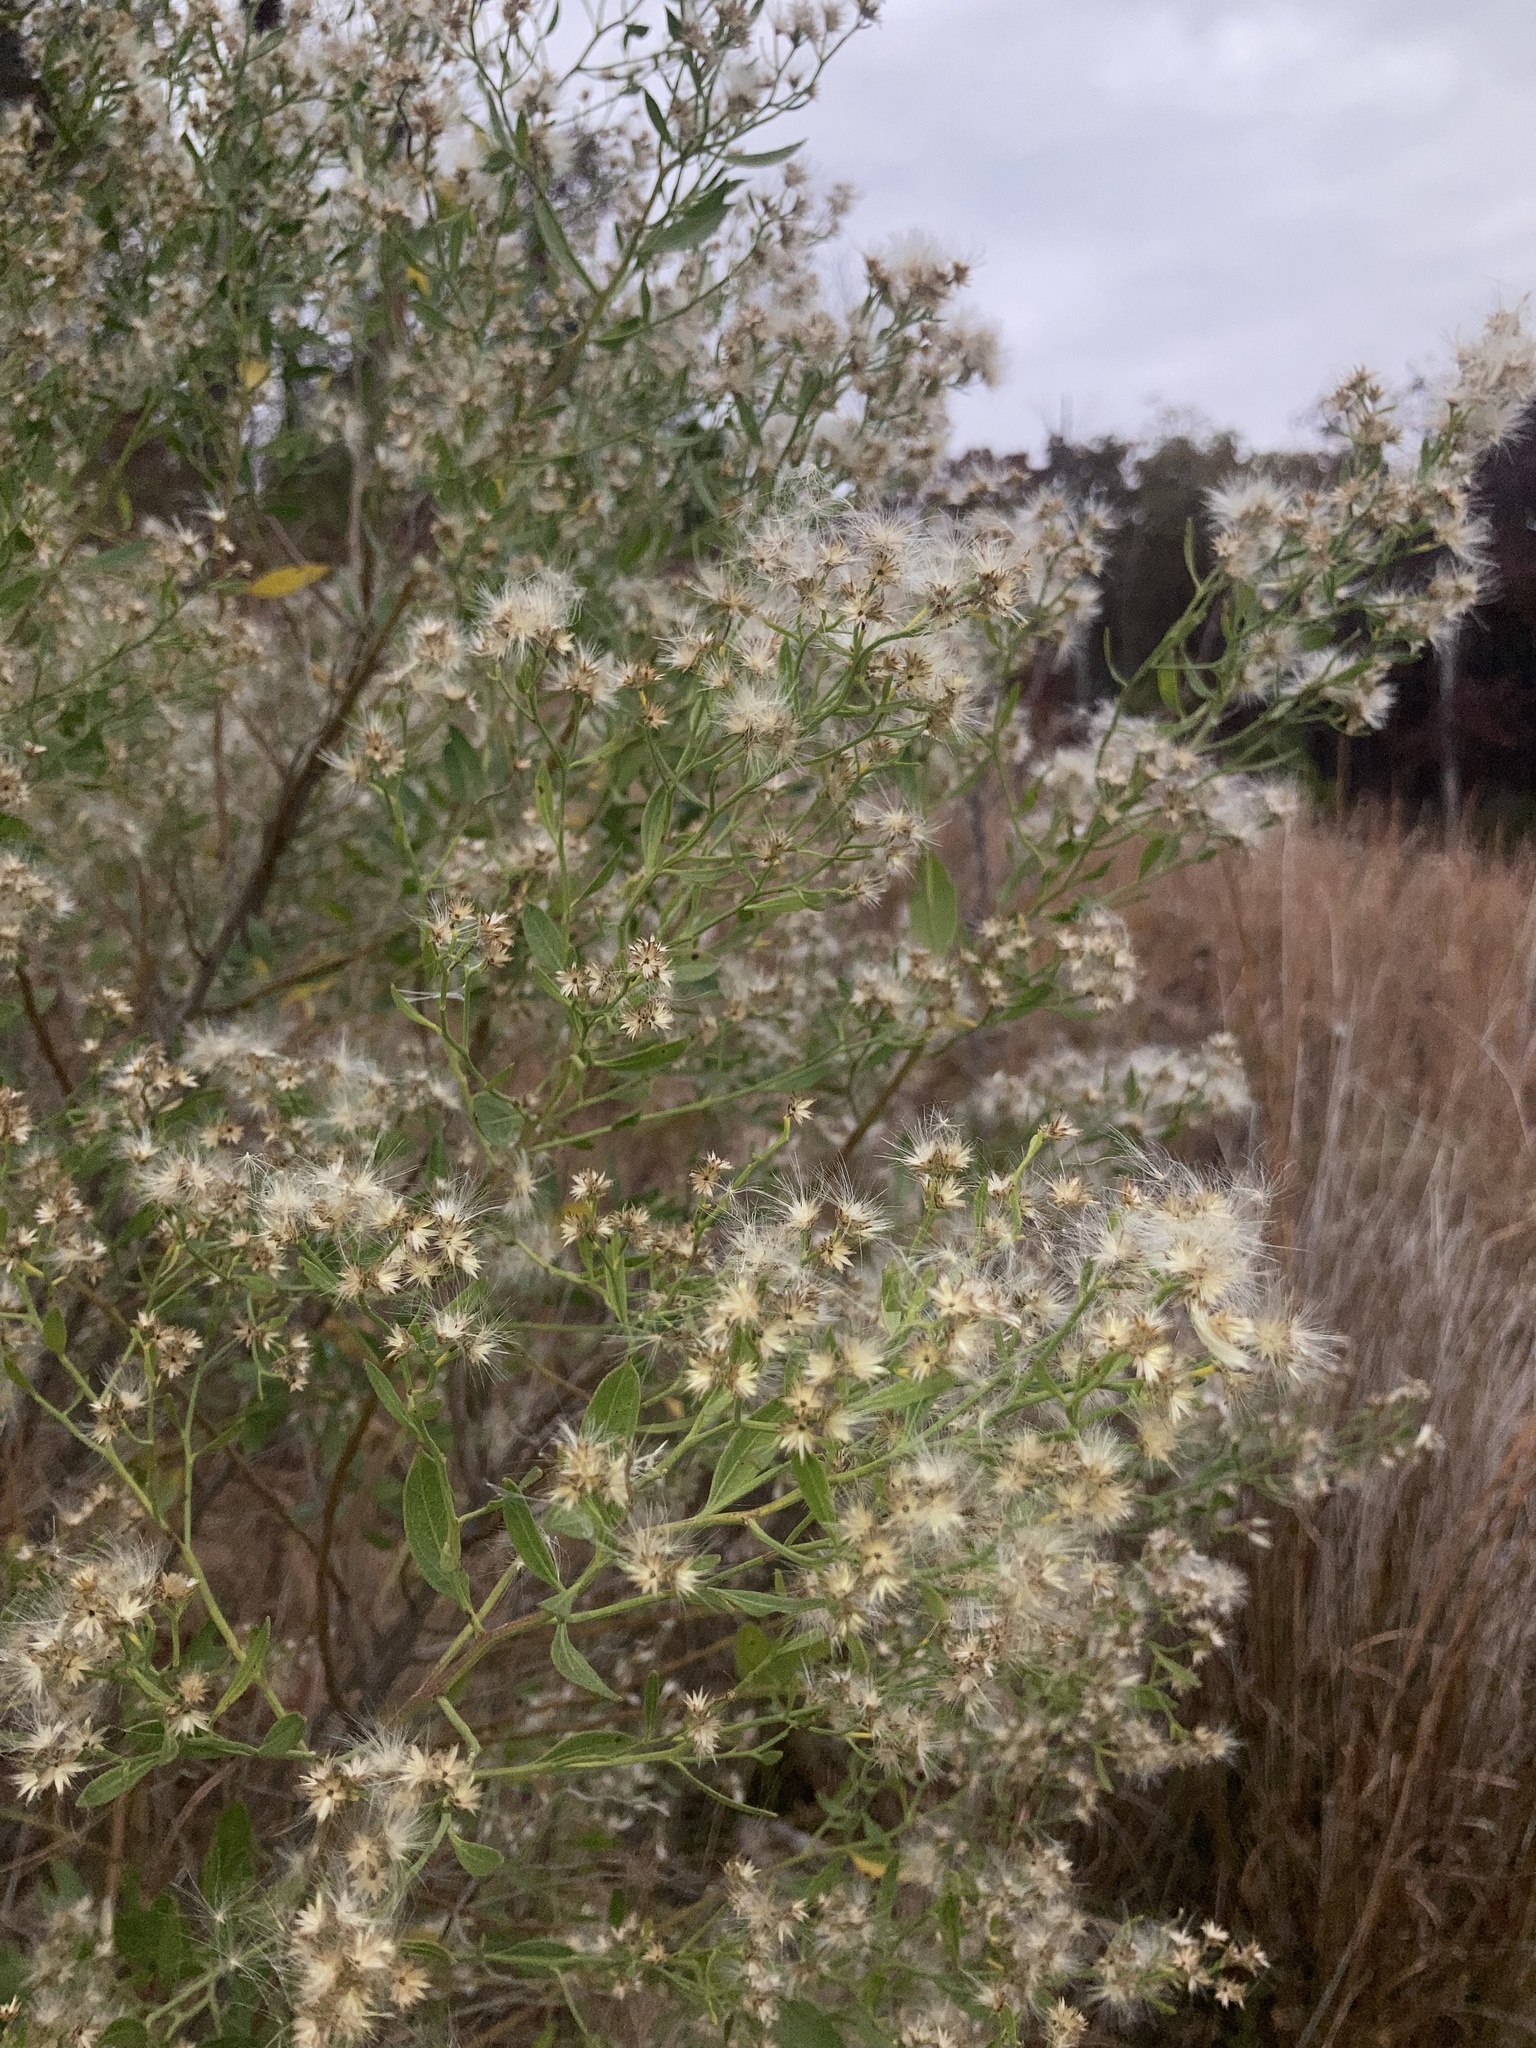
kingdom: Plantae
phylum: Tracheophyta
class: Magnoliopsida
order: Asterales
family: Asteraceae
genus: Baccharis
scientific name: Baccharis halimifolia
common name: Eastern baccharis
